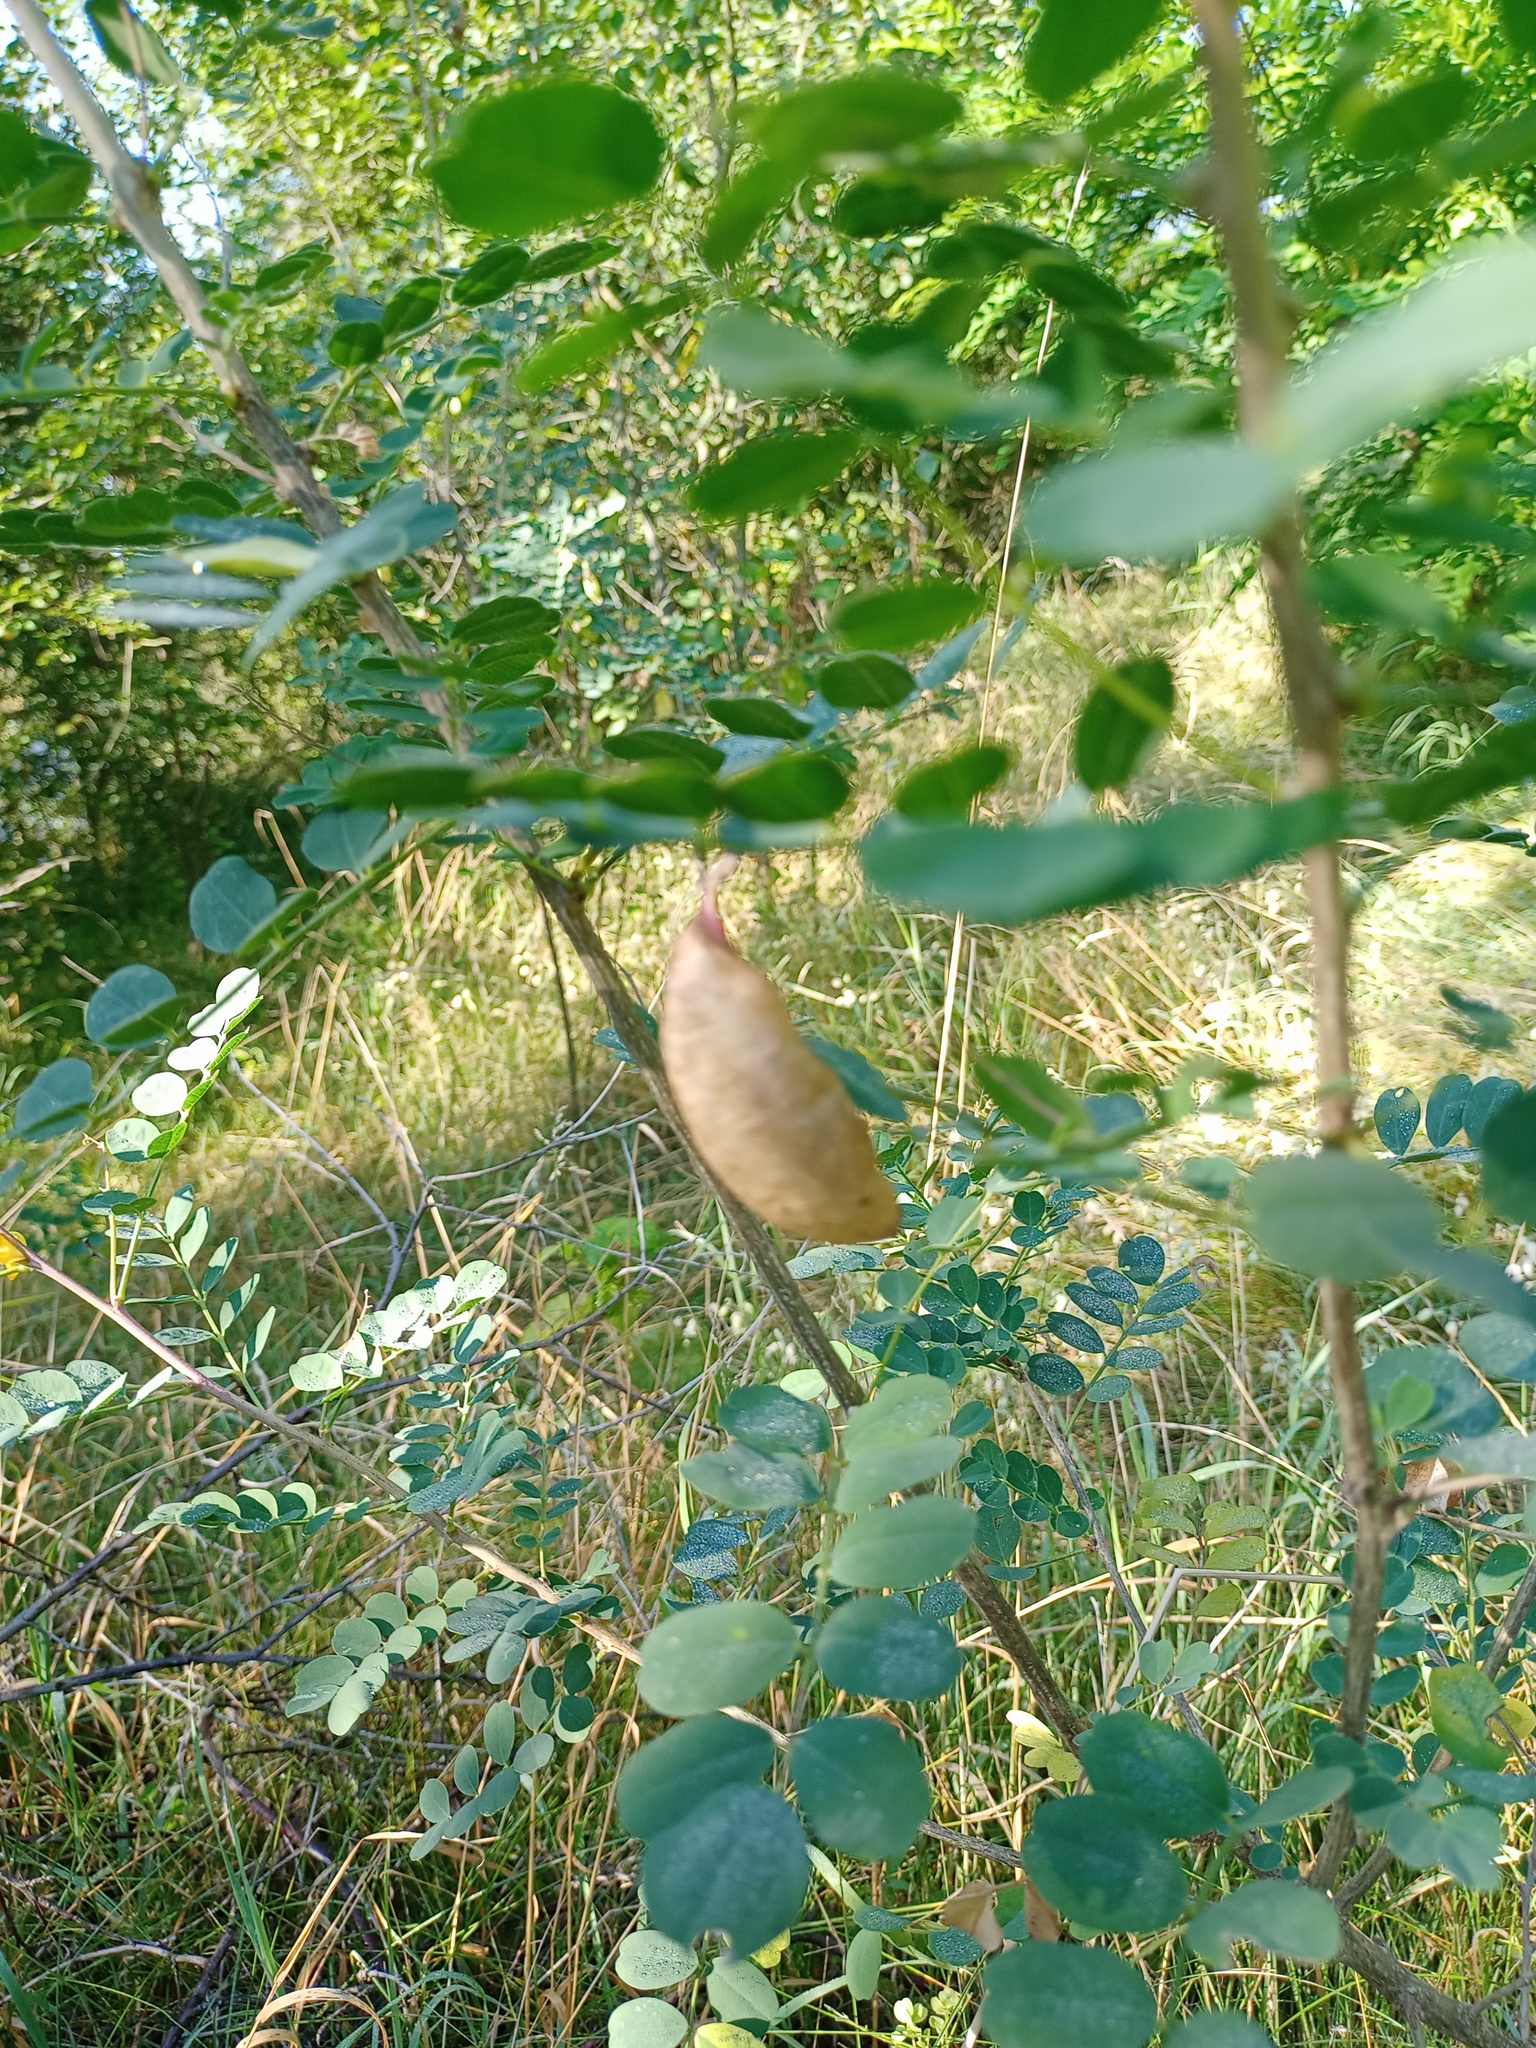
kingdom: Plantae
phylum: Tracheophyta
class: Magnoliopsida
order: Fabales
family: Fabaceae
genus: Colutea
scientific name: Colutea arborescens
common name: Bladder-senna
